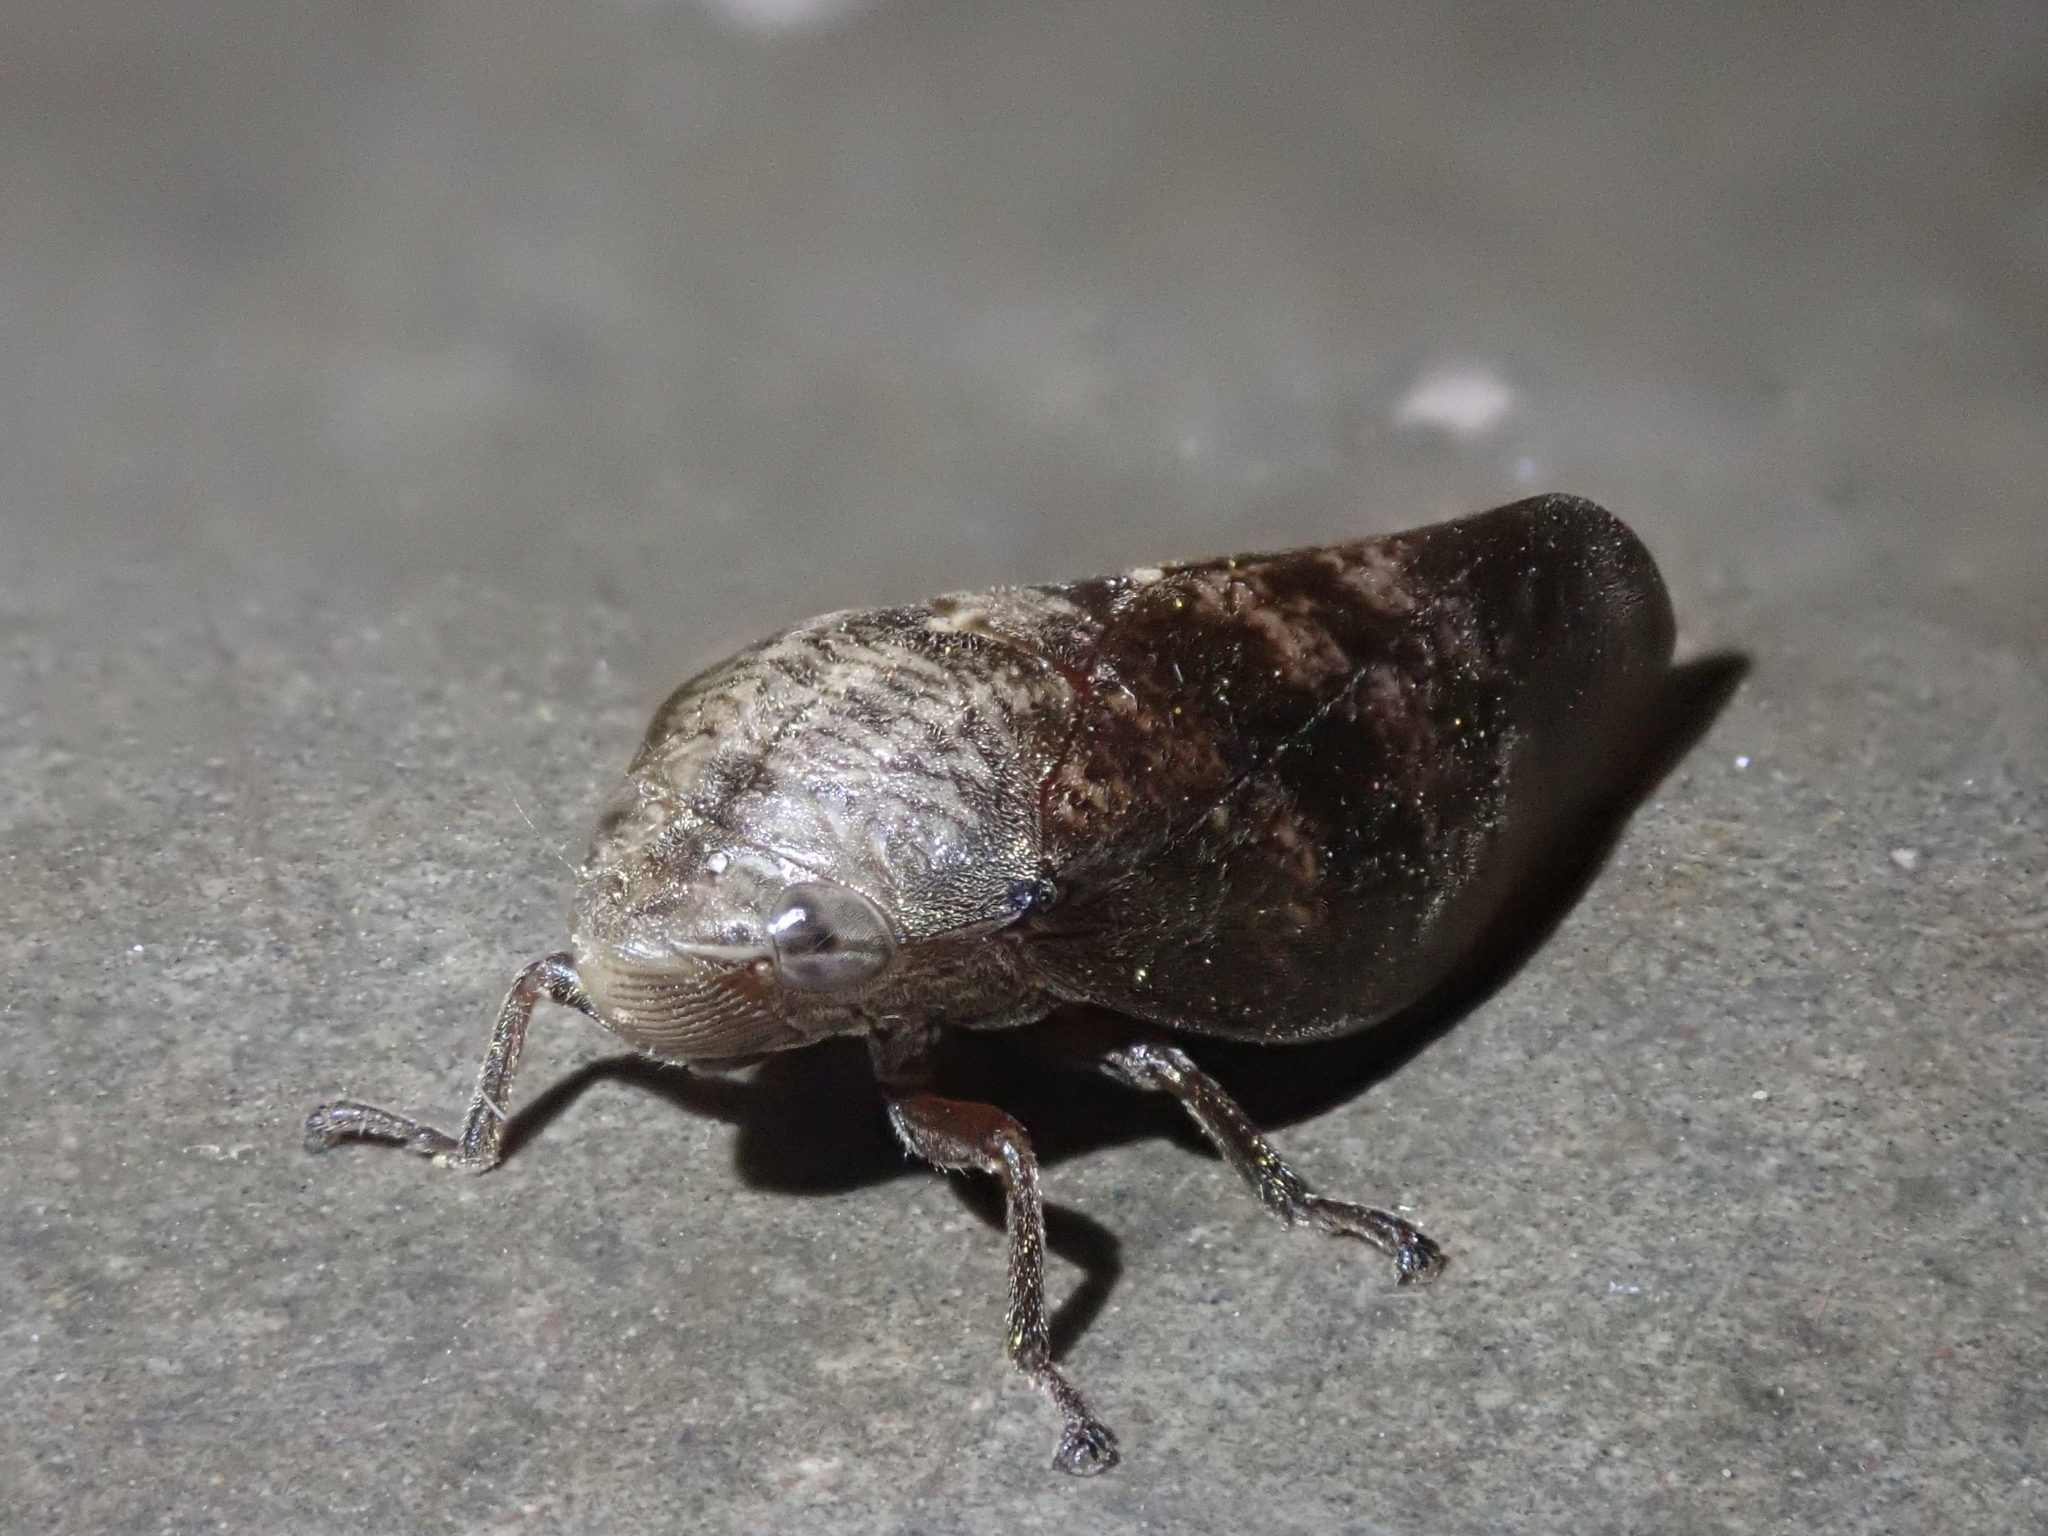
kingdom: Animalia
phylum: Arthropoda
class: Insecta
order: Hemiptera
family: Aphrophoridae
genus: Cephisus
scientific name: Cephisus siccifolius
